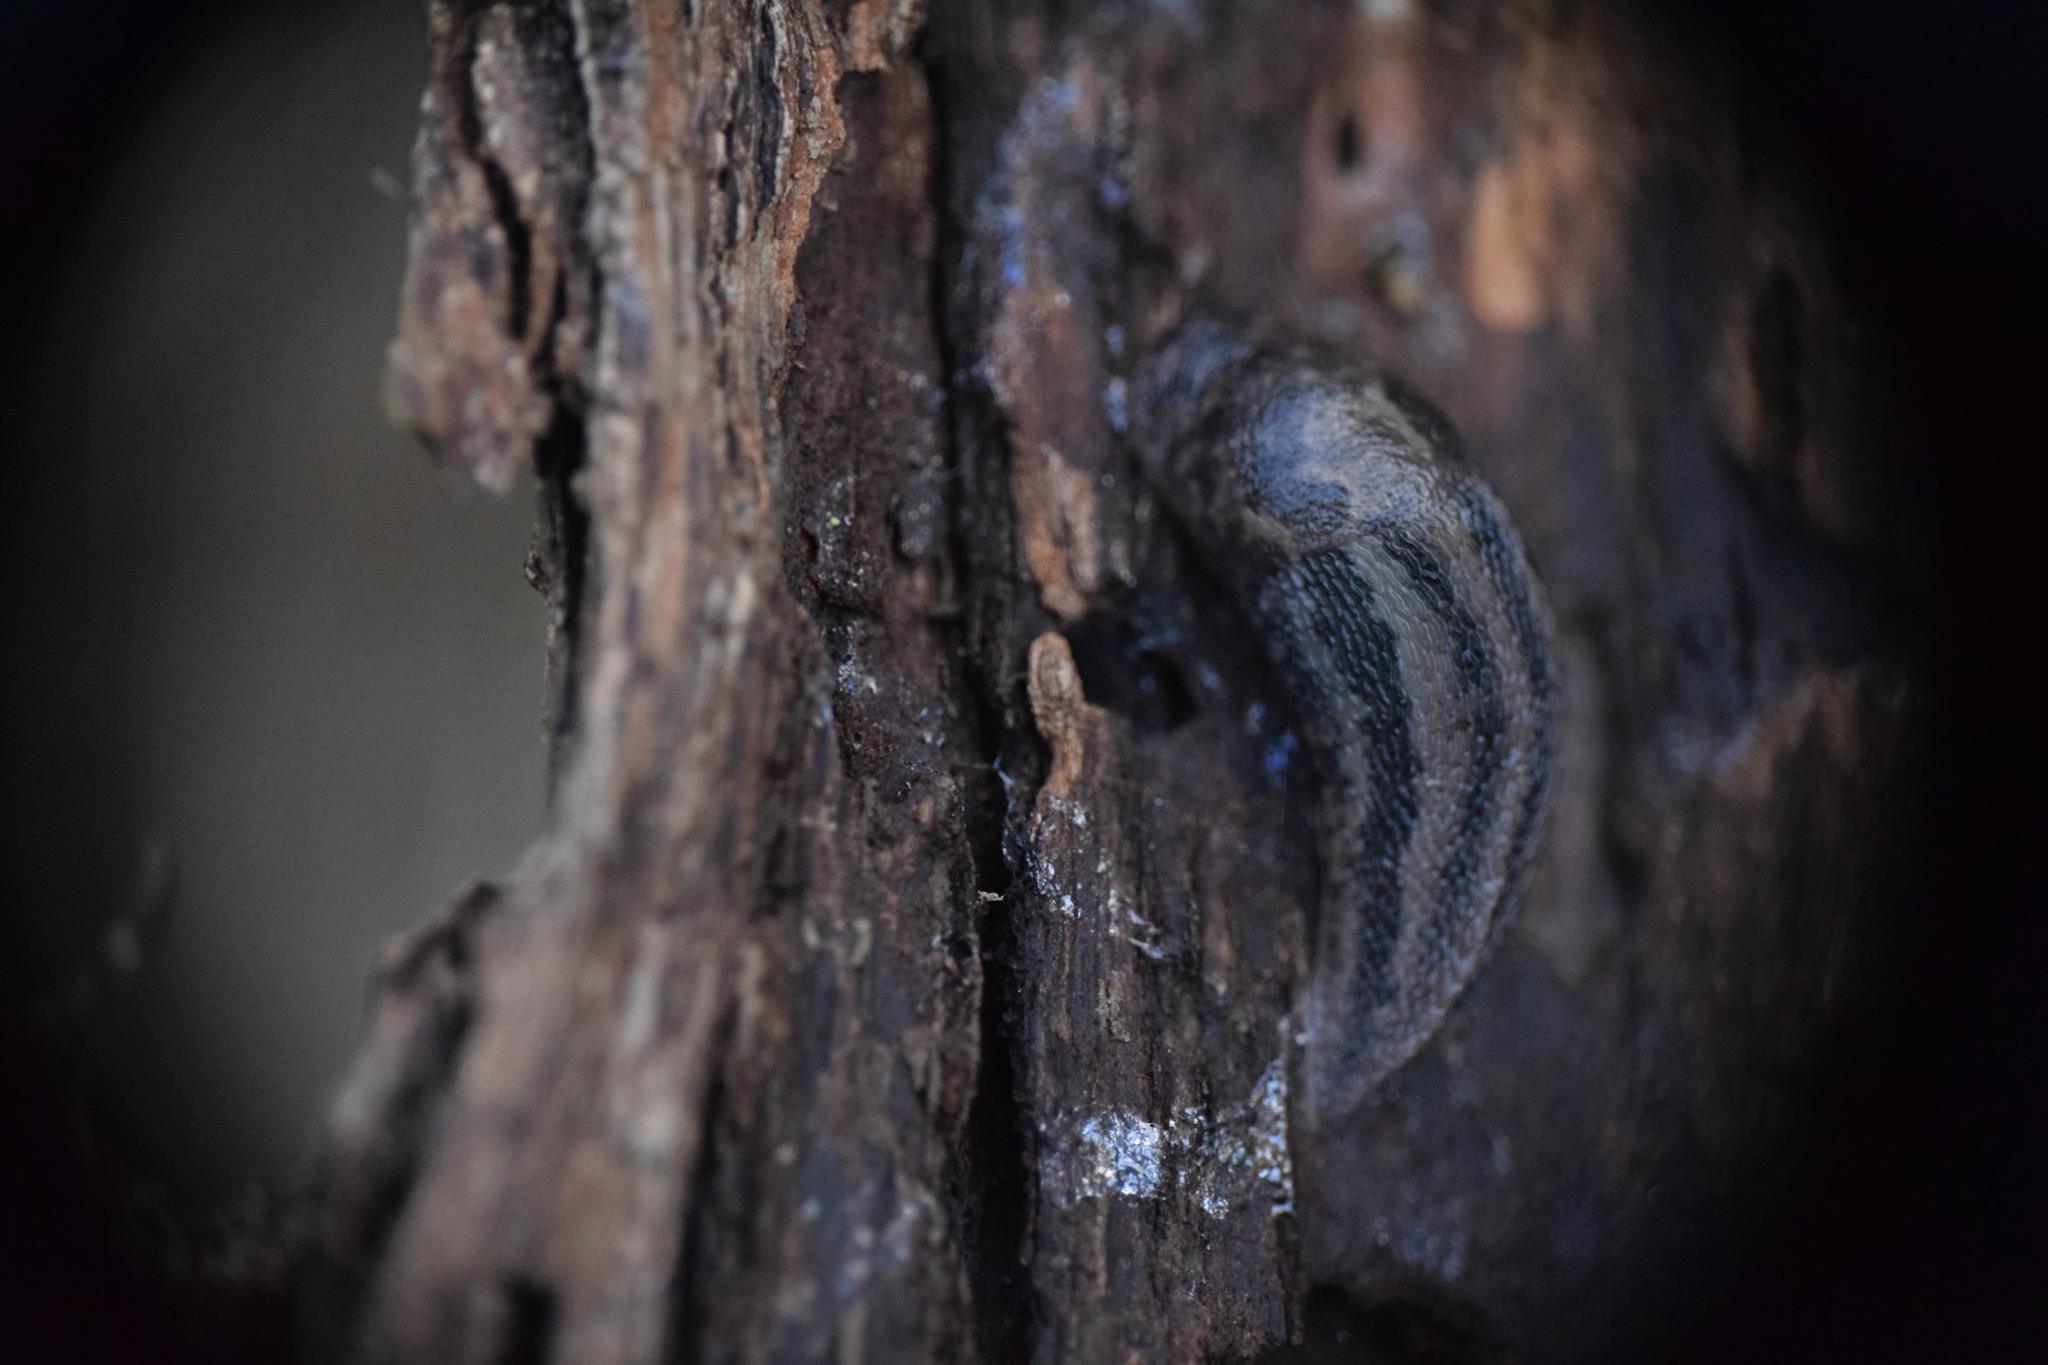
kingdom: Animalia
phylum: Mollusca
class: Gastropoda
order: Stylommatophora
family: Limacidae
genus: Limax
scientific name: Limax maximus
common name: Great grey slug
